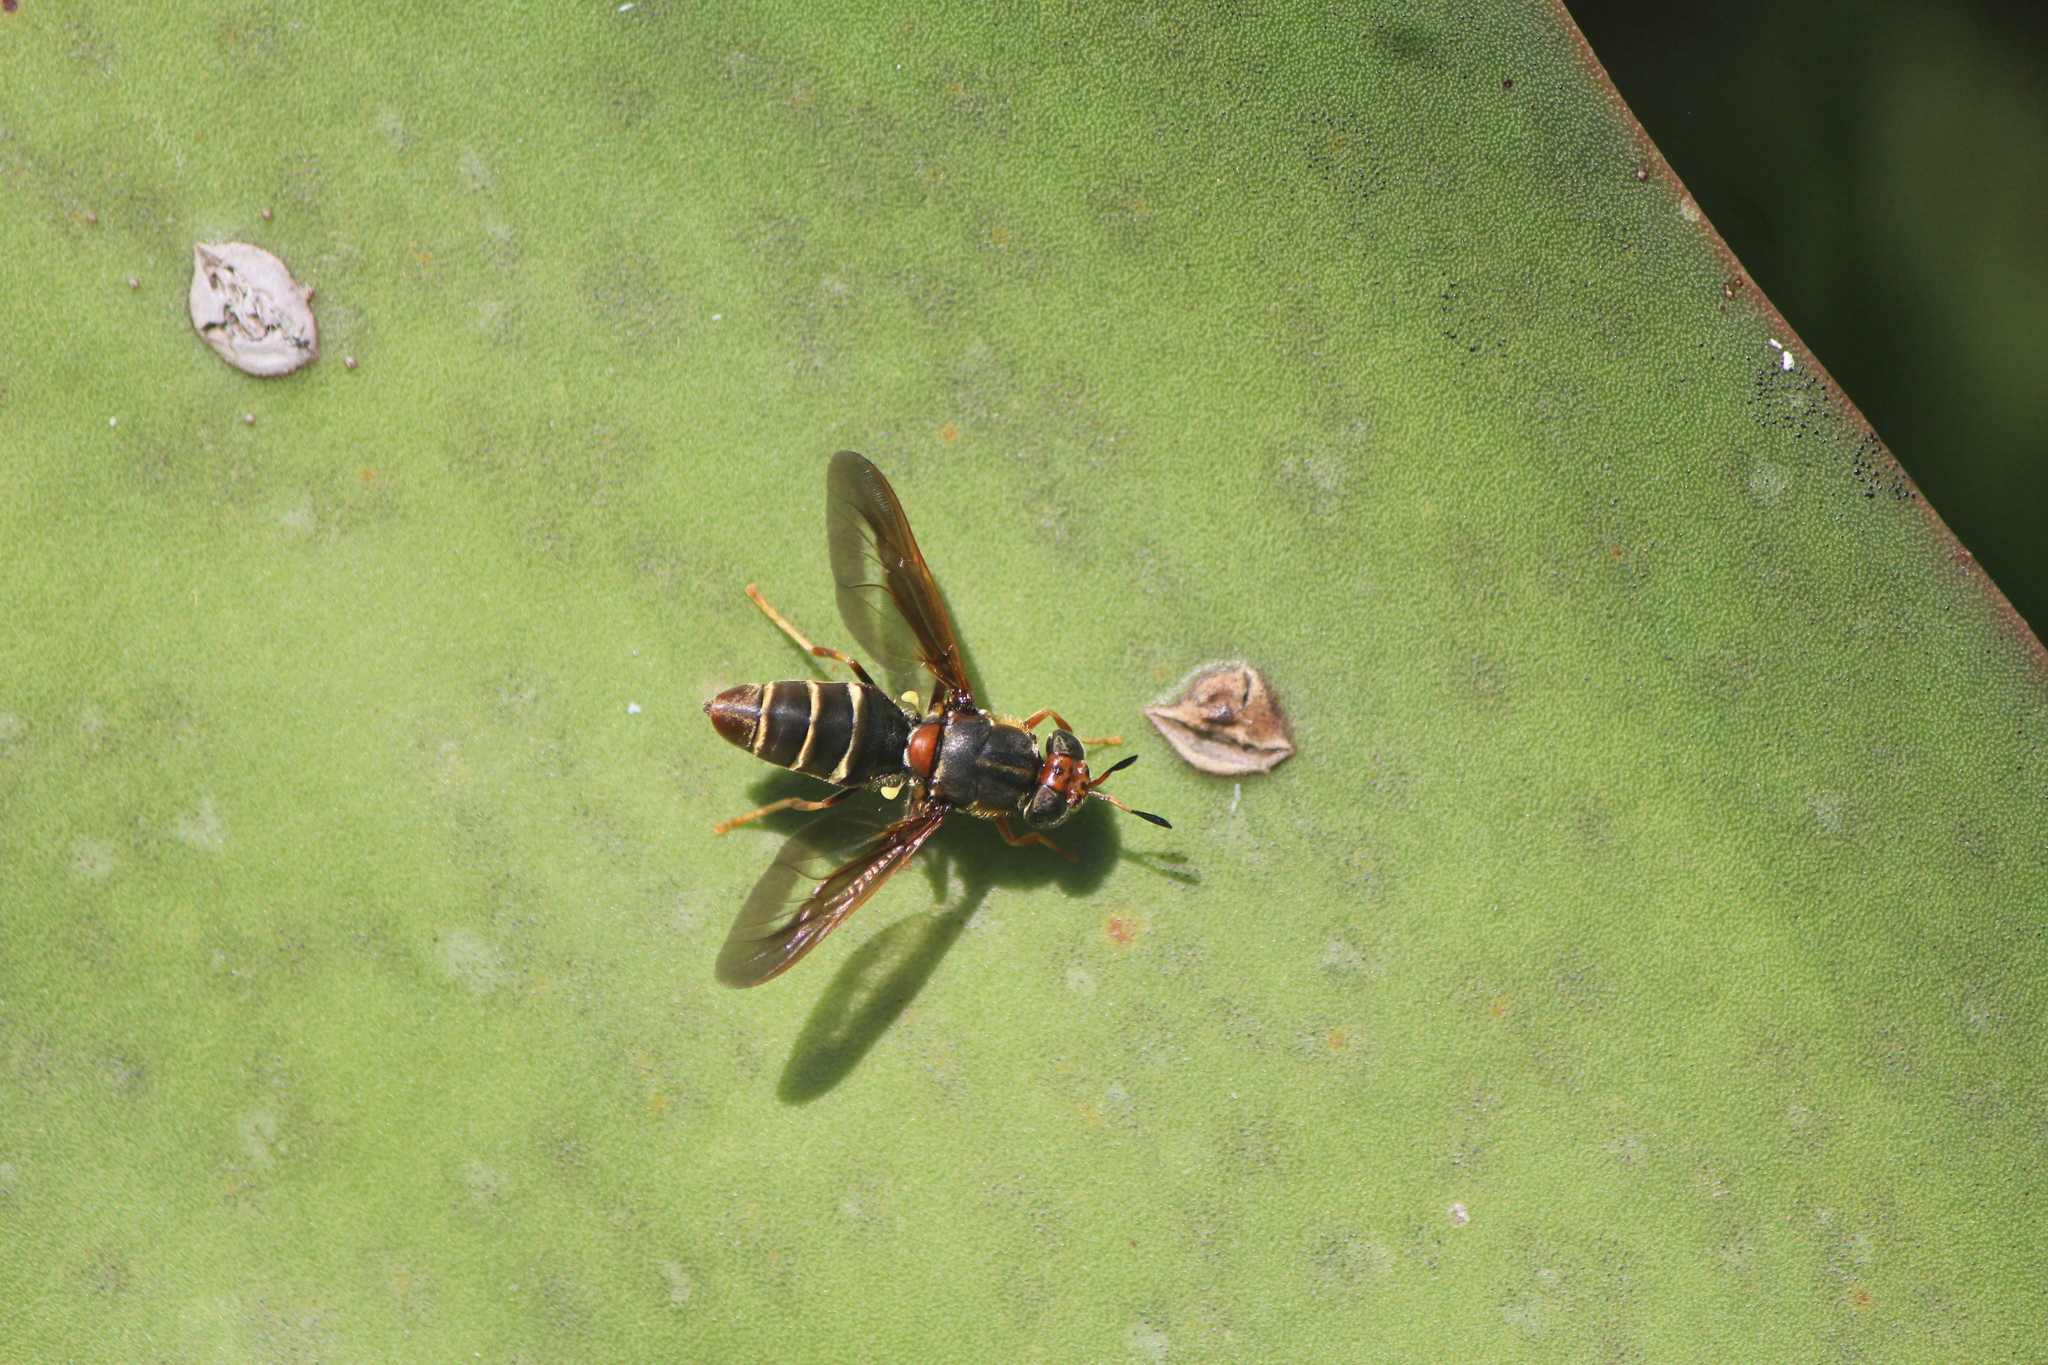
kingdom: Animalia
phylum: Arthropoda
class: Insecta
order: Diptera
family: Stratiomyidae
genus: Hermetia
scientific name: Hermetia comstocki
